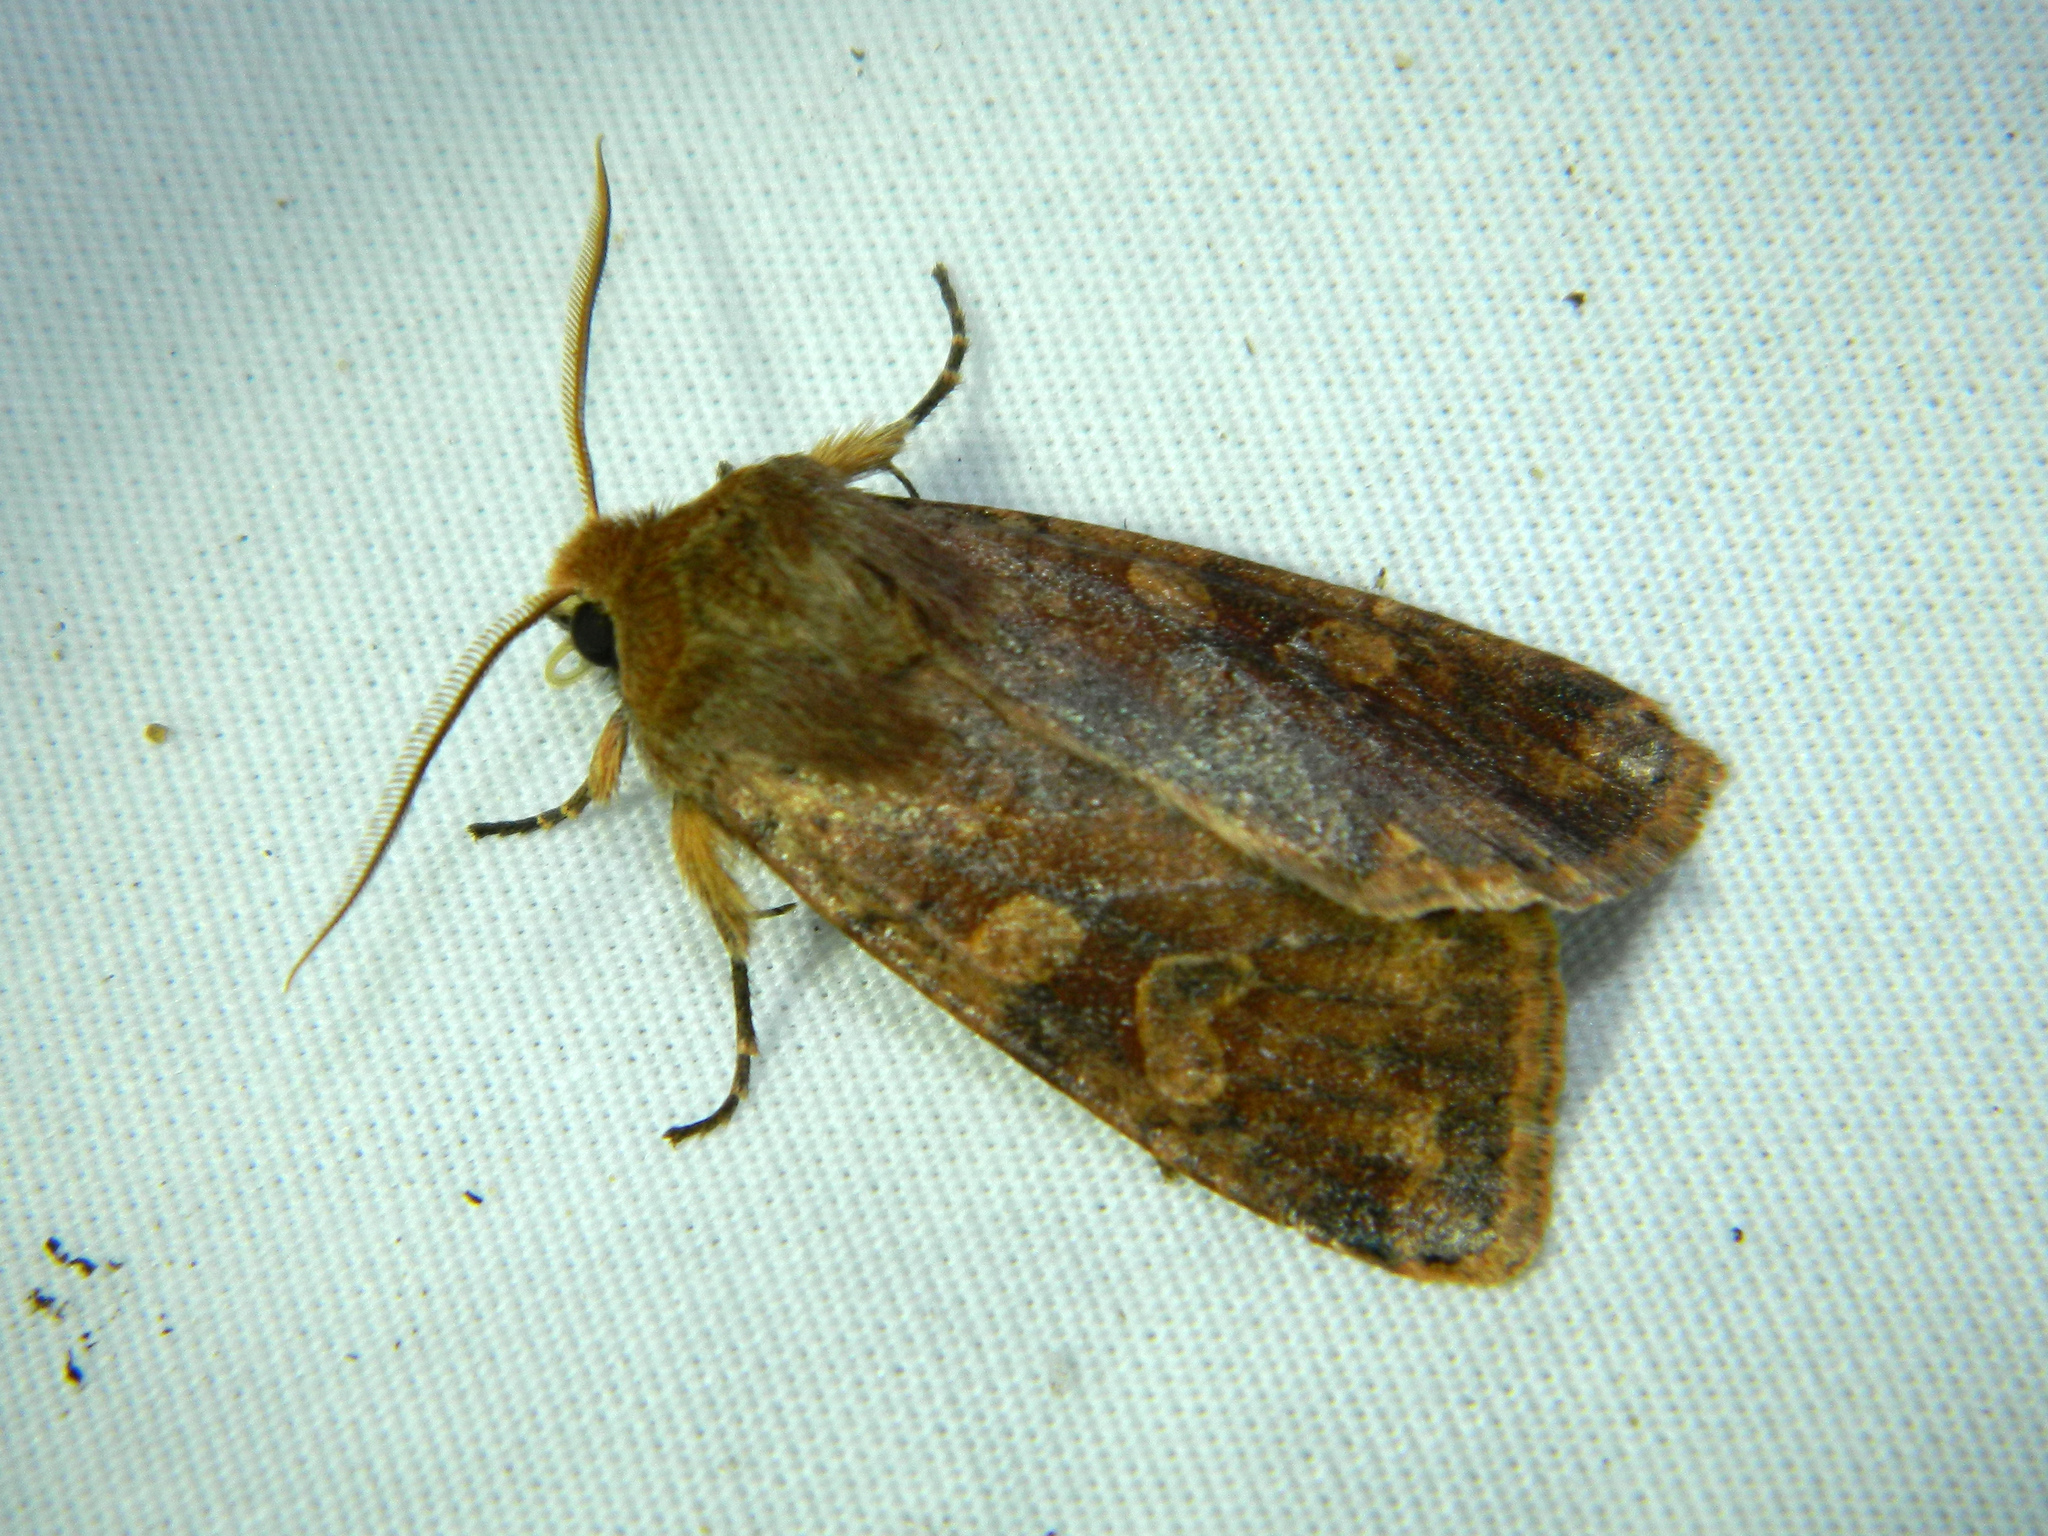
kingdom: Animalia
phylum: Arthropoda
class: Insecta
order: Lepidoptera
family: Noctuidae
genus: Orthosia
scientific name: Orthosia rubescens
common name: Ruby quaker
